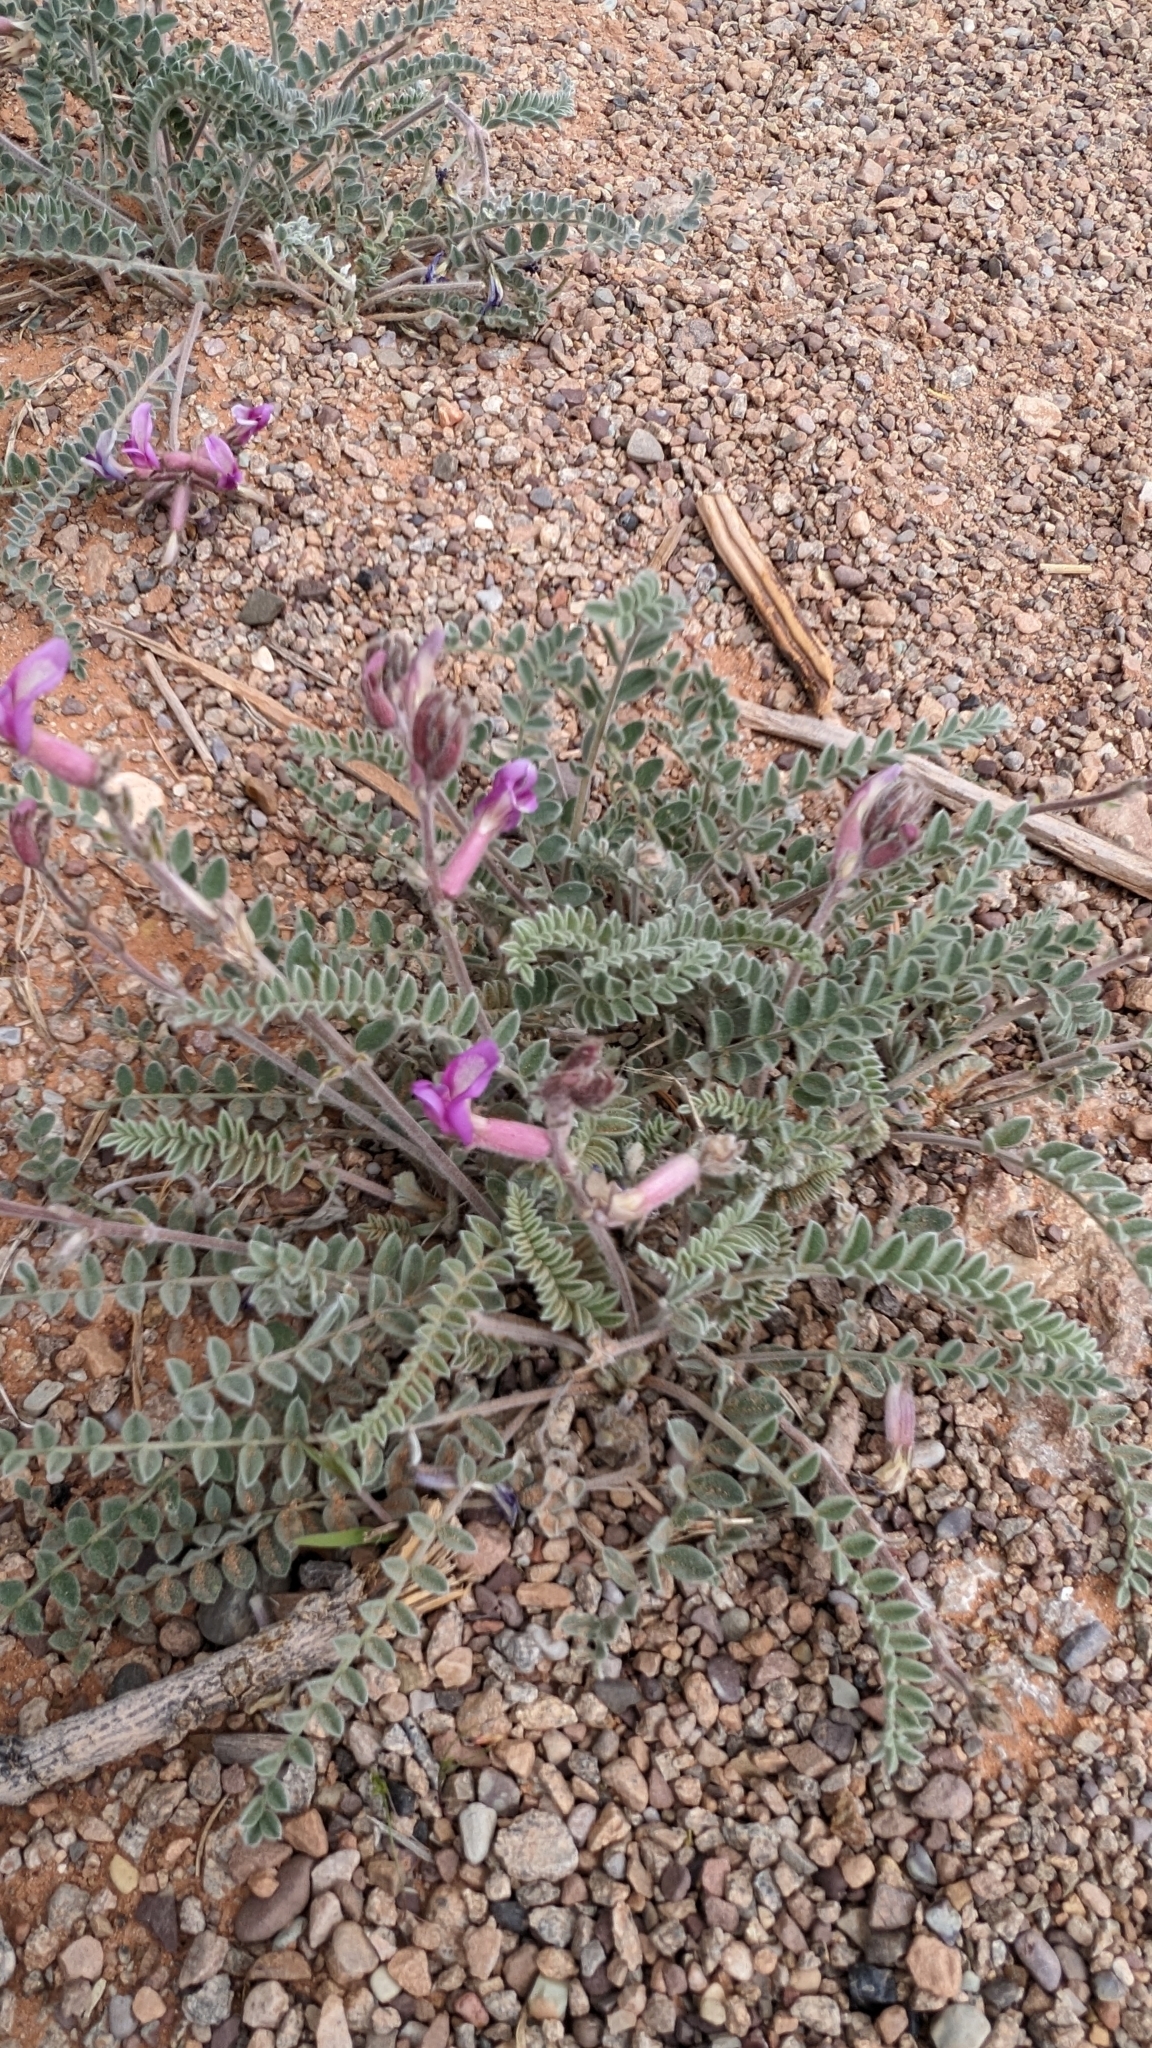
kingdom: Plantae
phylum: Tracheophyta
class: Magnoliopsida
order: Fabales
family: Fabaceae
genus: Astragalus
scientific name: Astragalus mollissimus
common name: Woolly locoweed
